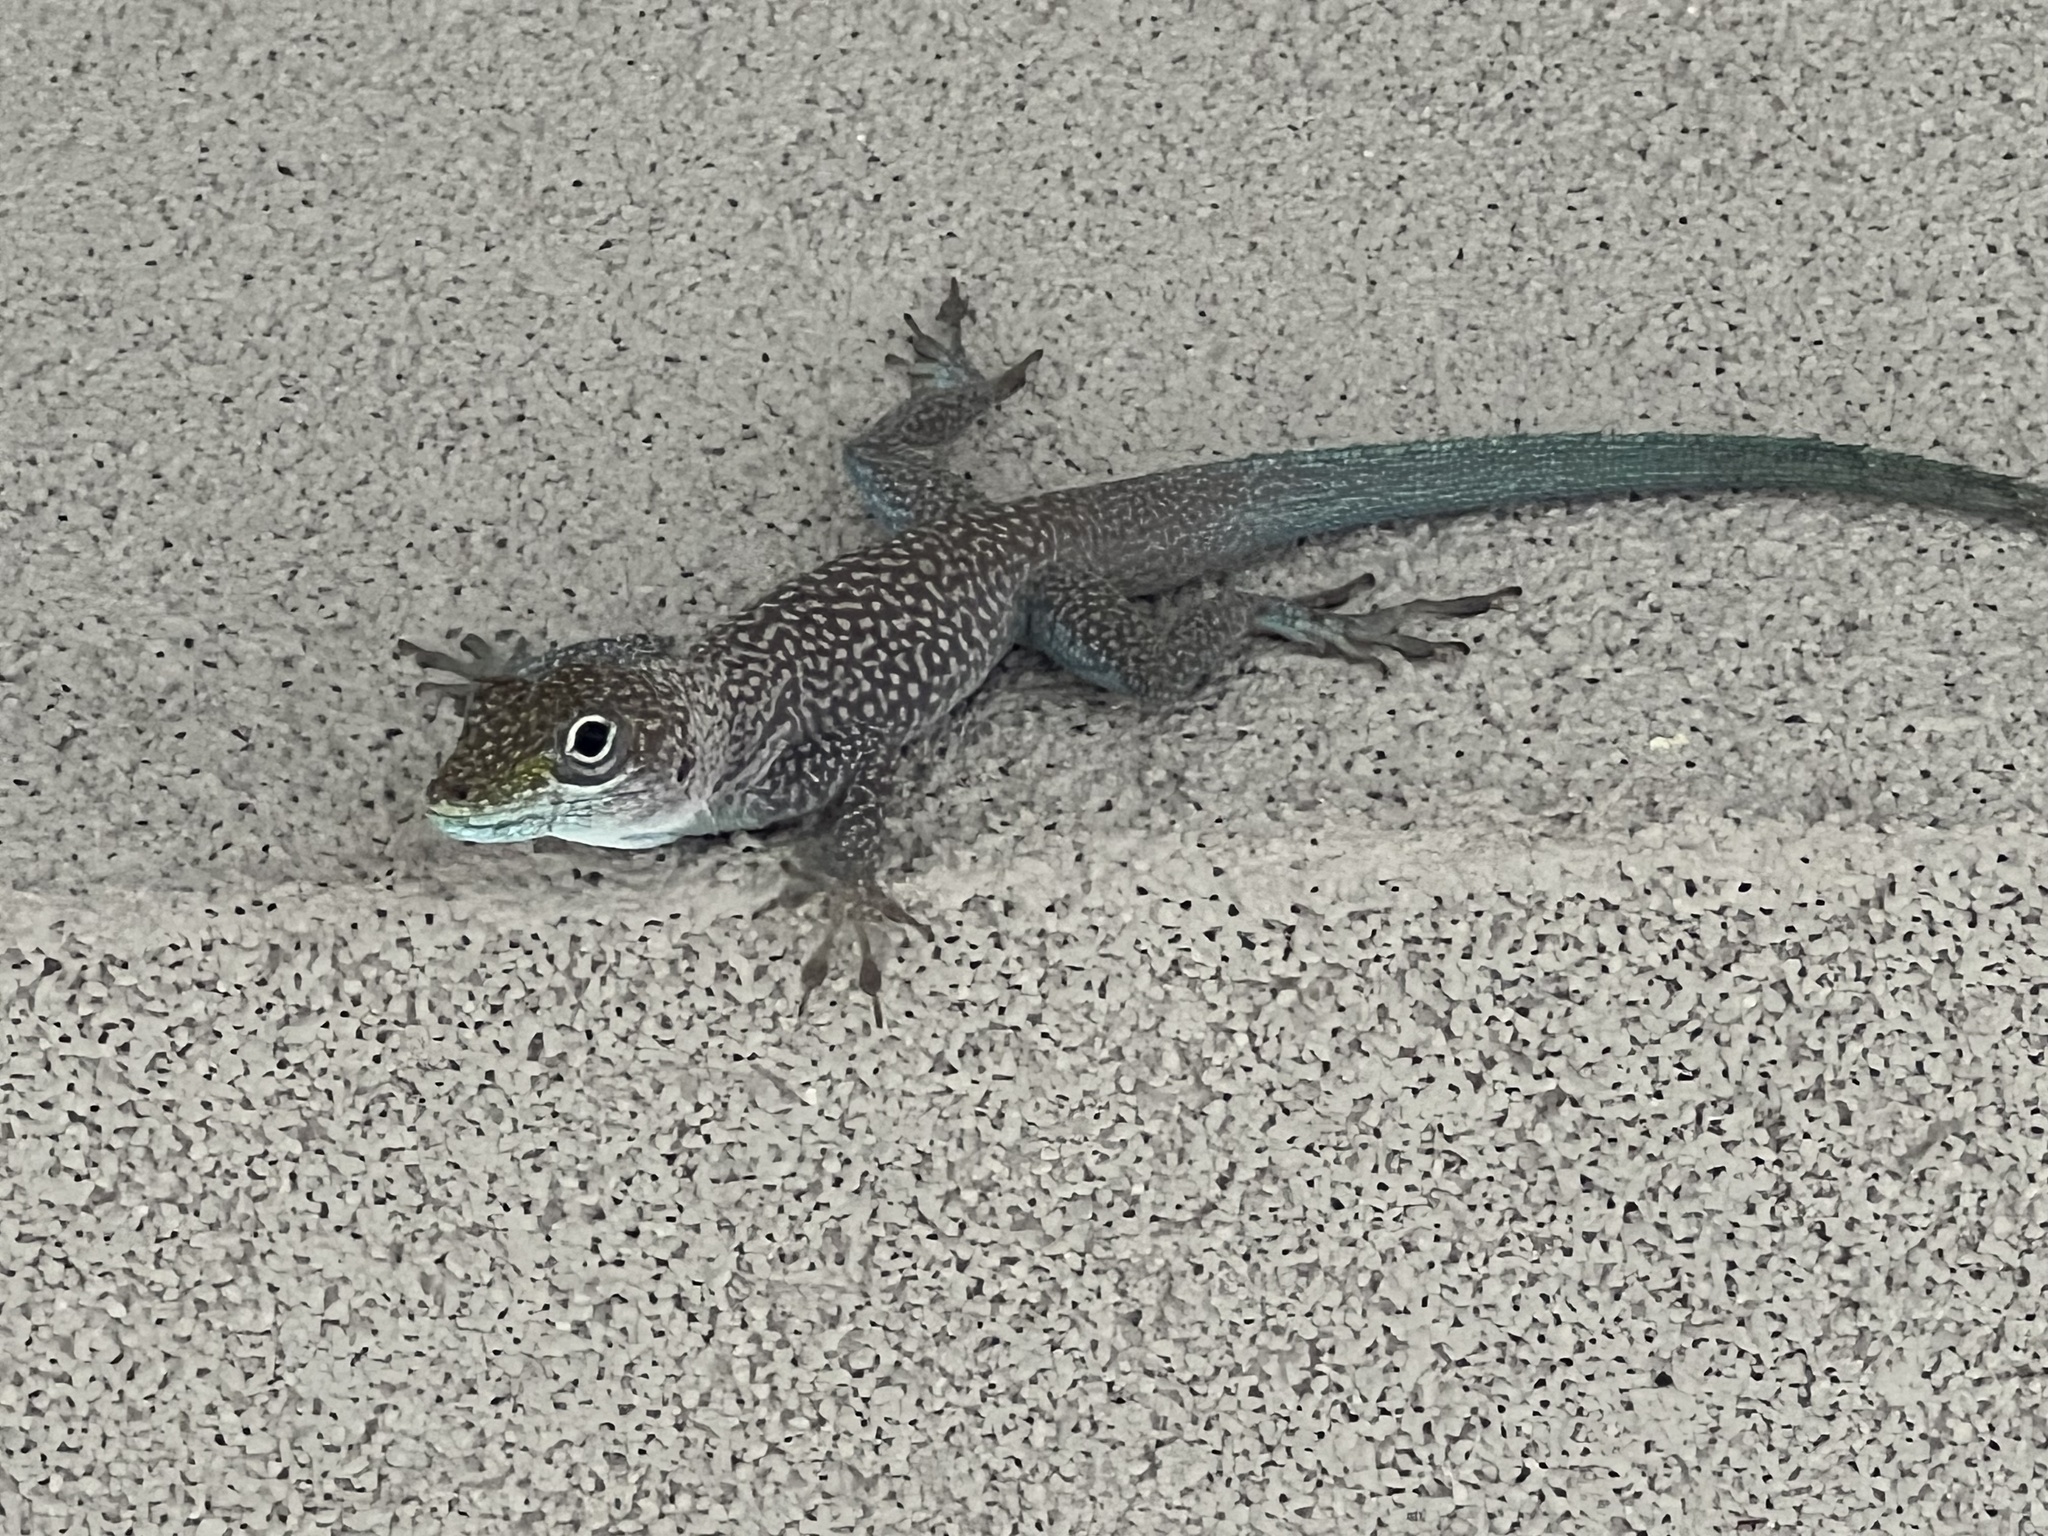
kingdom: Animalia
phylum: Chordata
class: Squamata
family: Dactyloidae
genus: Anolis
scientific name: Anolis conspersus
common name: Grand cayman anole
